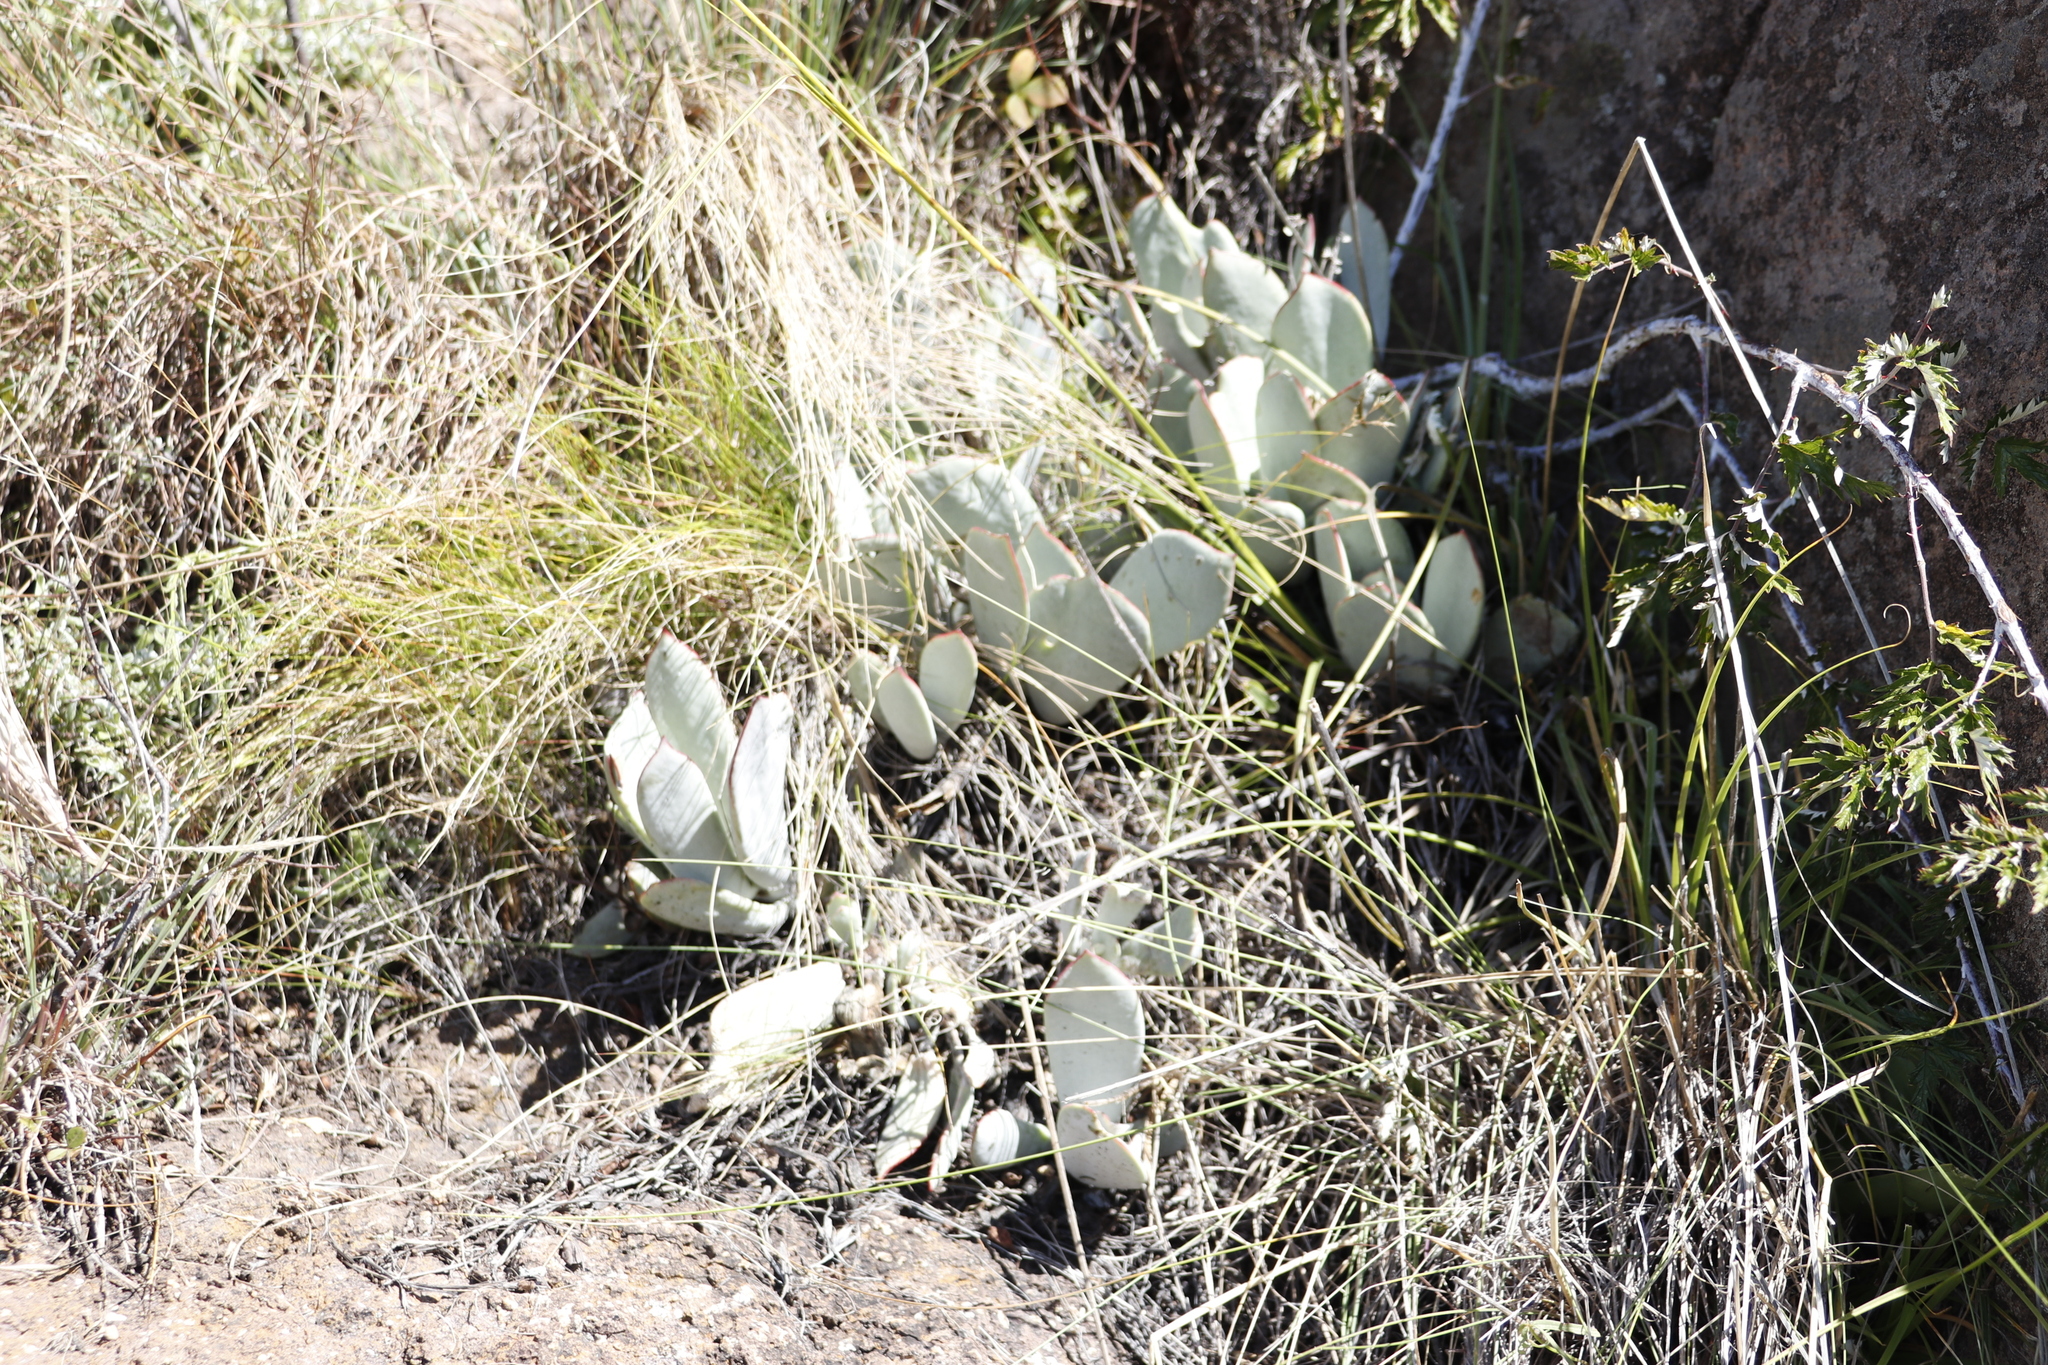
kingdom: Plantae
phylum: Tracheophyta
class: Magnoliopsida
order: Saxifragales
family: Crassulaceae
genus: Cotyledon
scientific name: Cotyledon orbiculata
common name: Pig's ear
